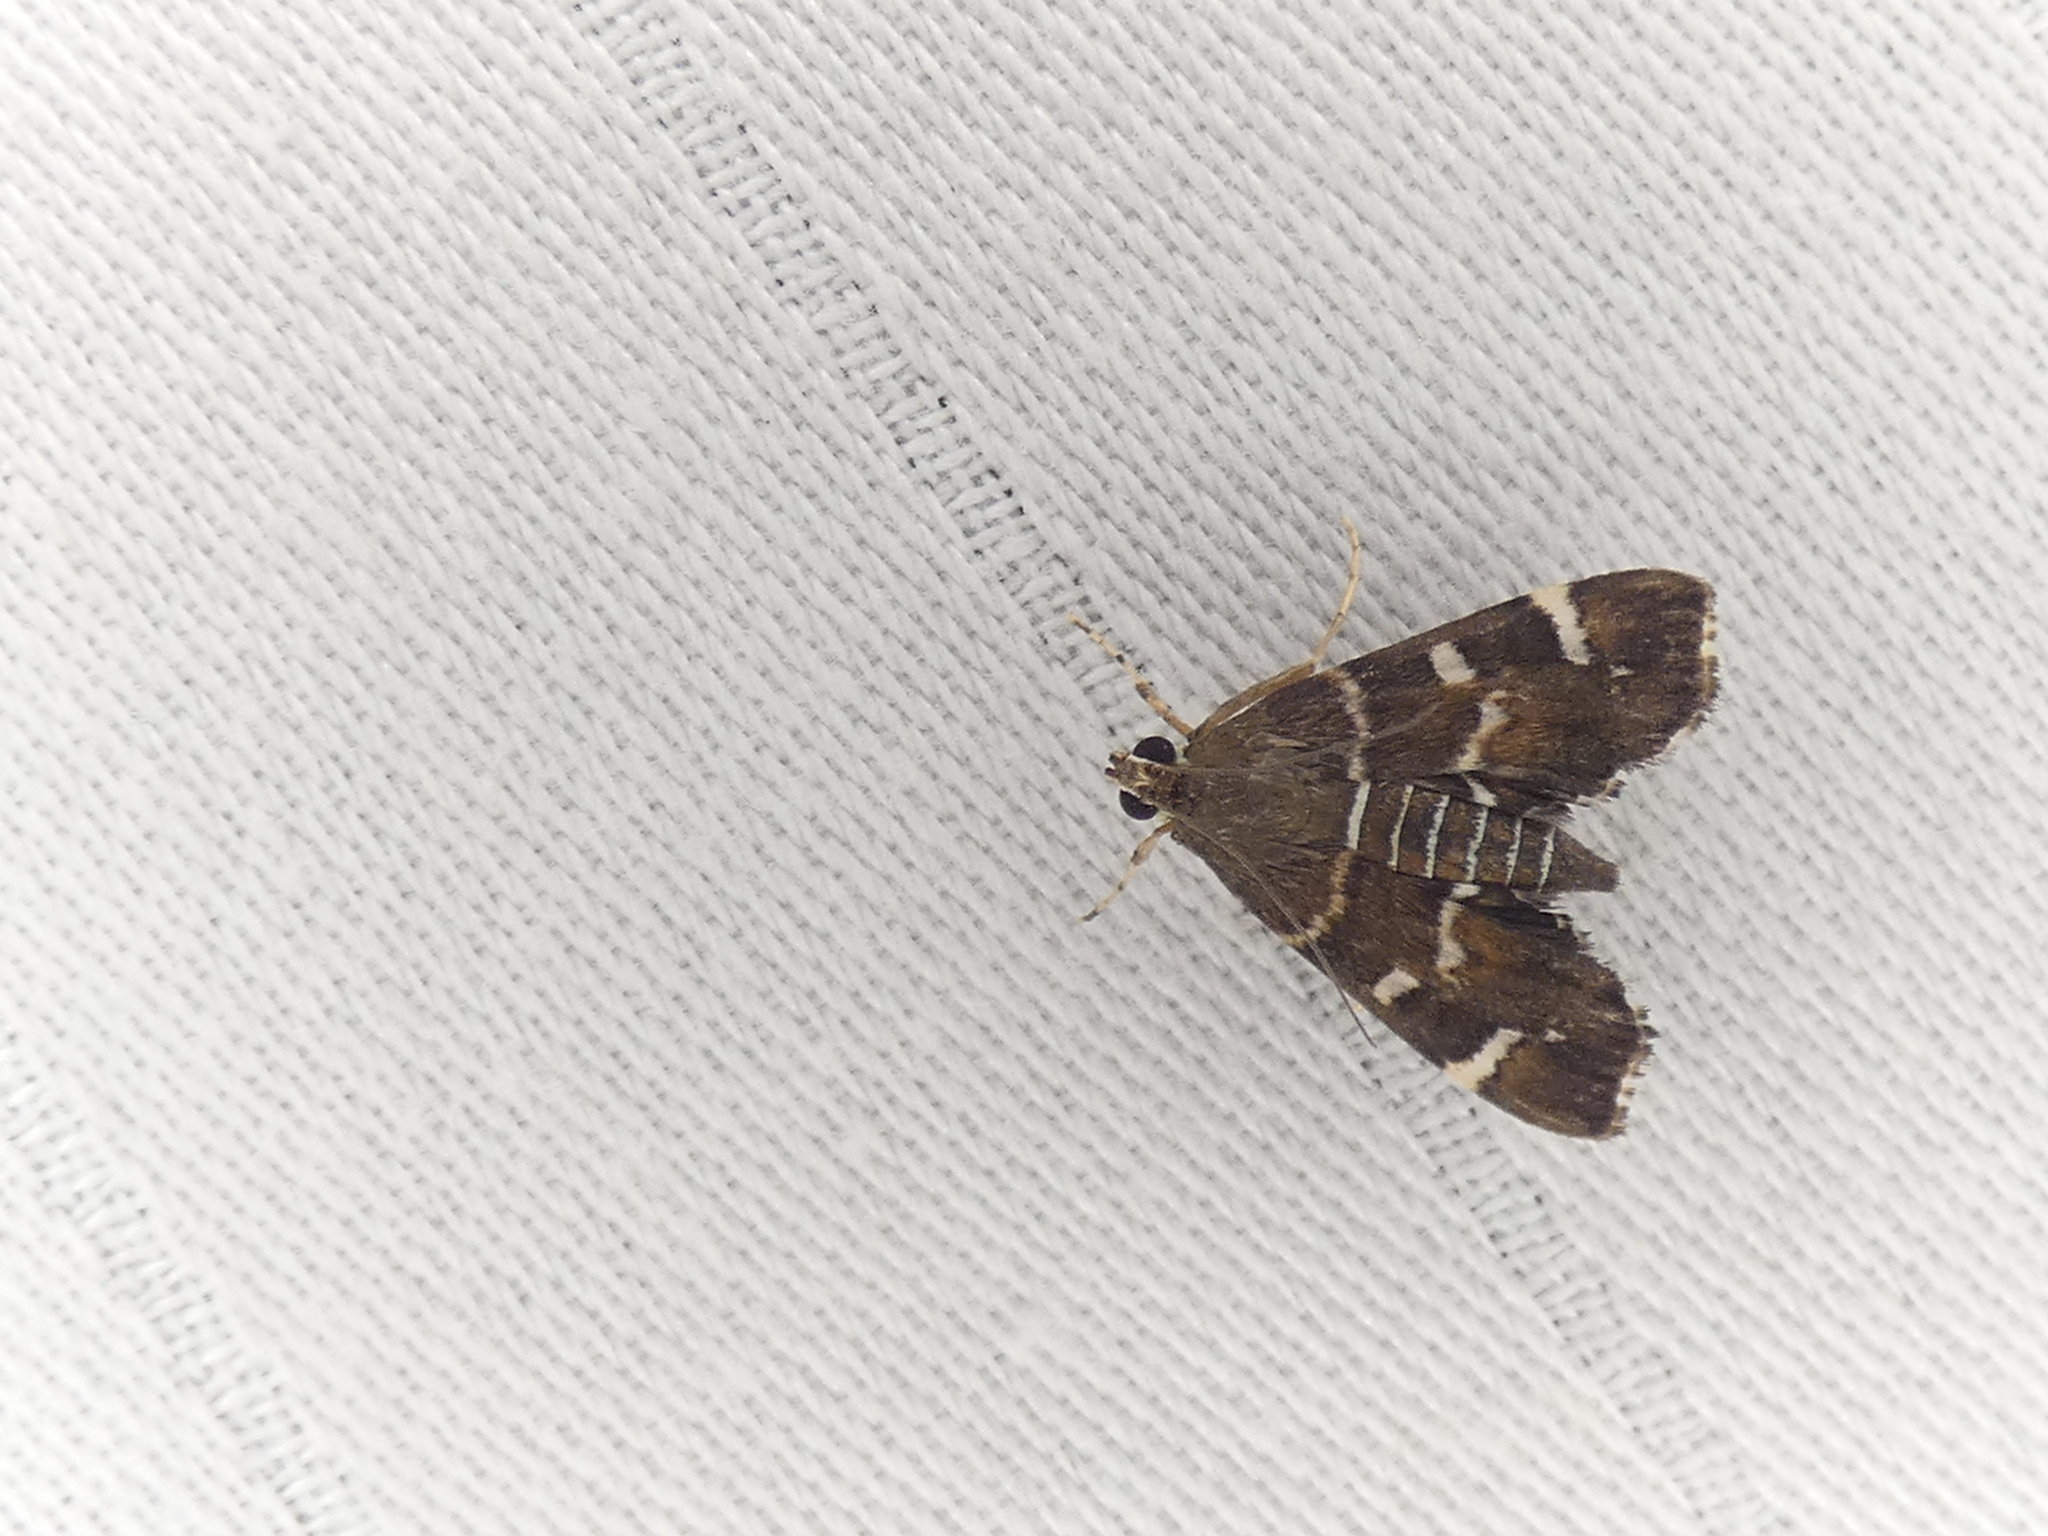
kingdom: Animalia
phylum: Arthropoda
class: Insecta
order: Lepidoptera
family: Crambidae
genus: Hymenia
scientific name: Hymenia perspectalis
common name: Spotted beet webworm
